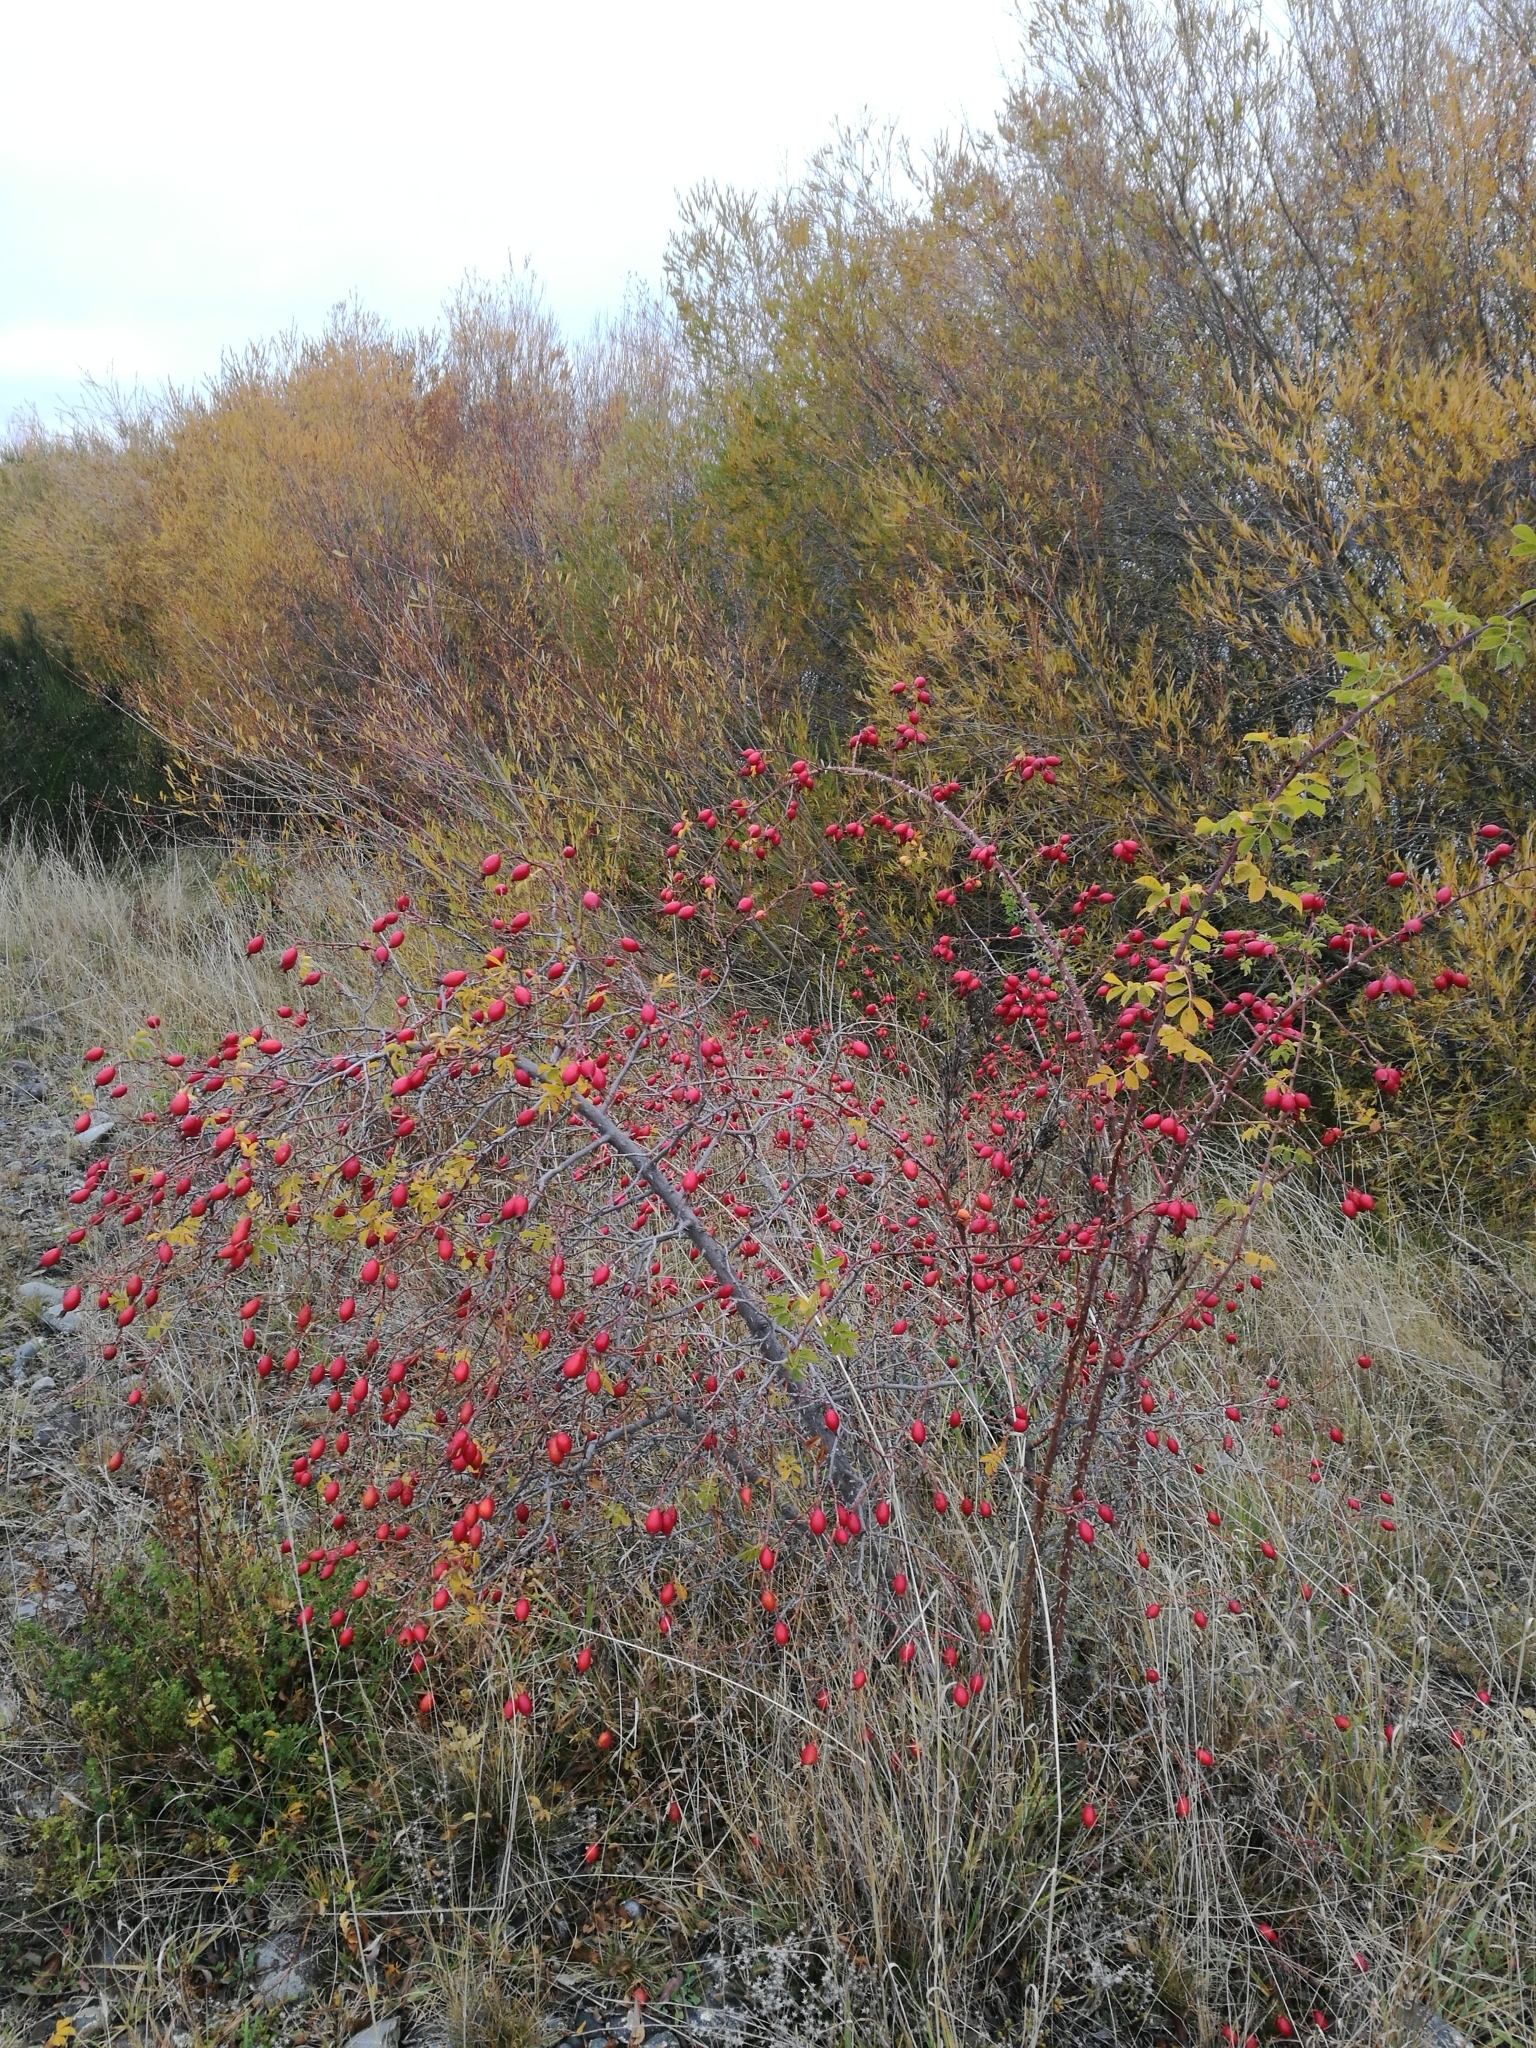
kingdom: Plantae
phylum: Tracheophyta
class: Magnoliopsida
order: Rosales
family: Rosaceae
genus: Rosa
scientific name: Rosa rubiginosa
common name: Sweet-briar
